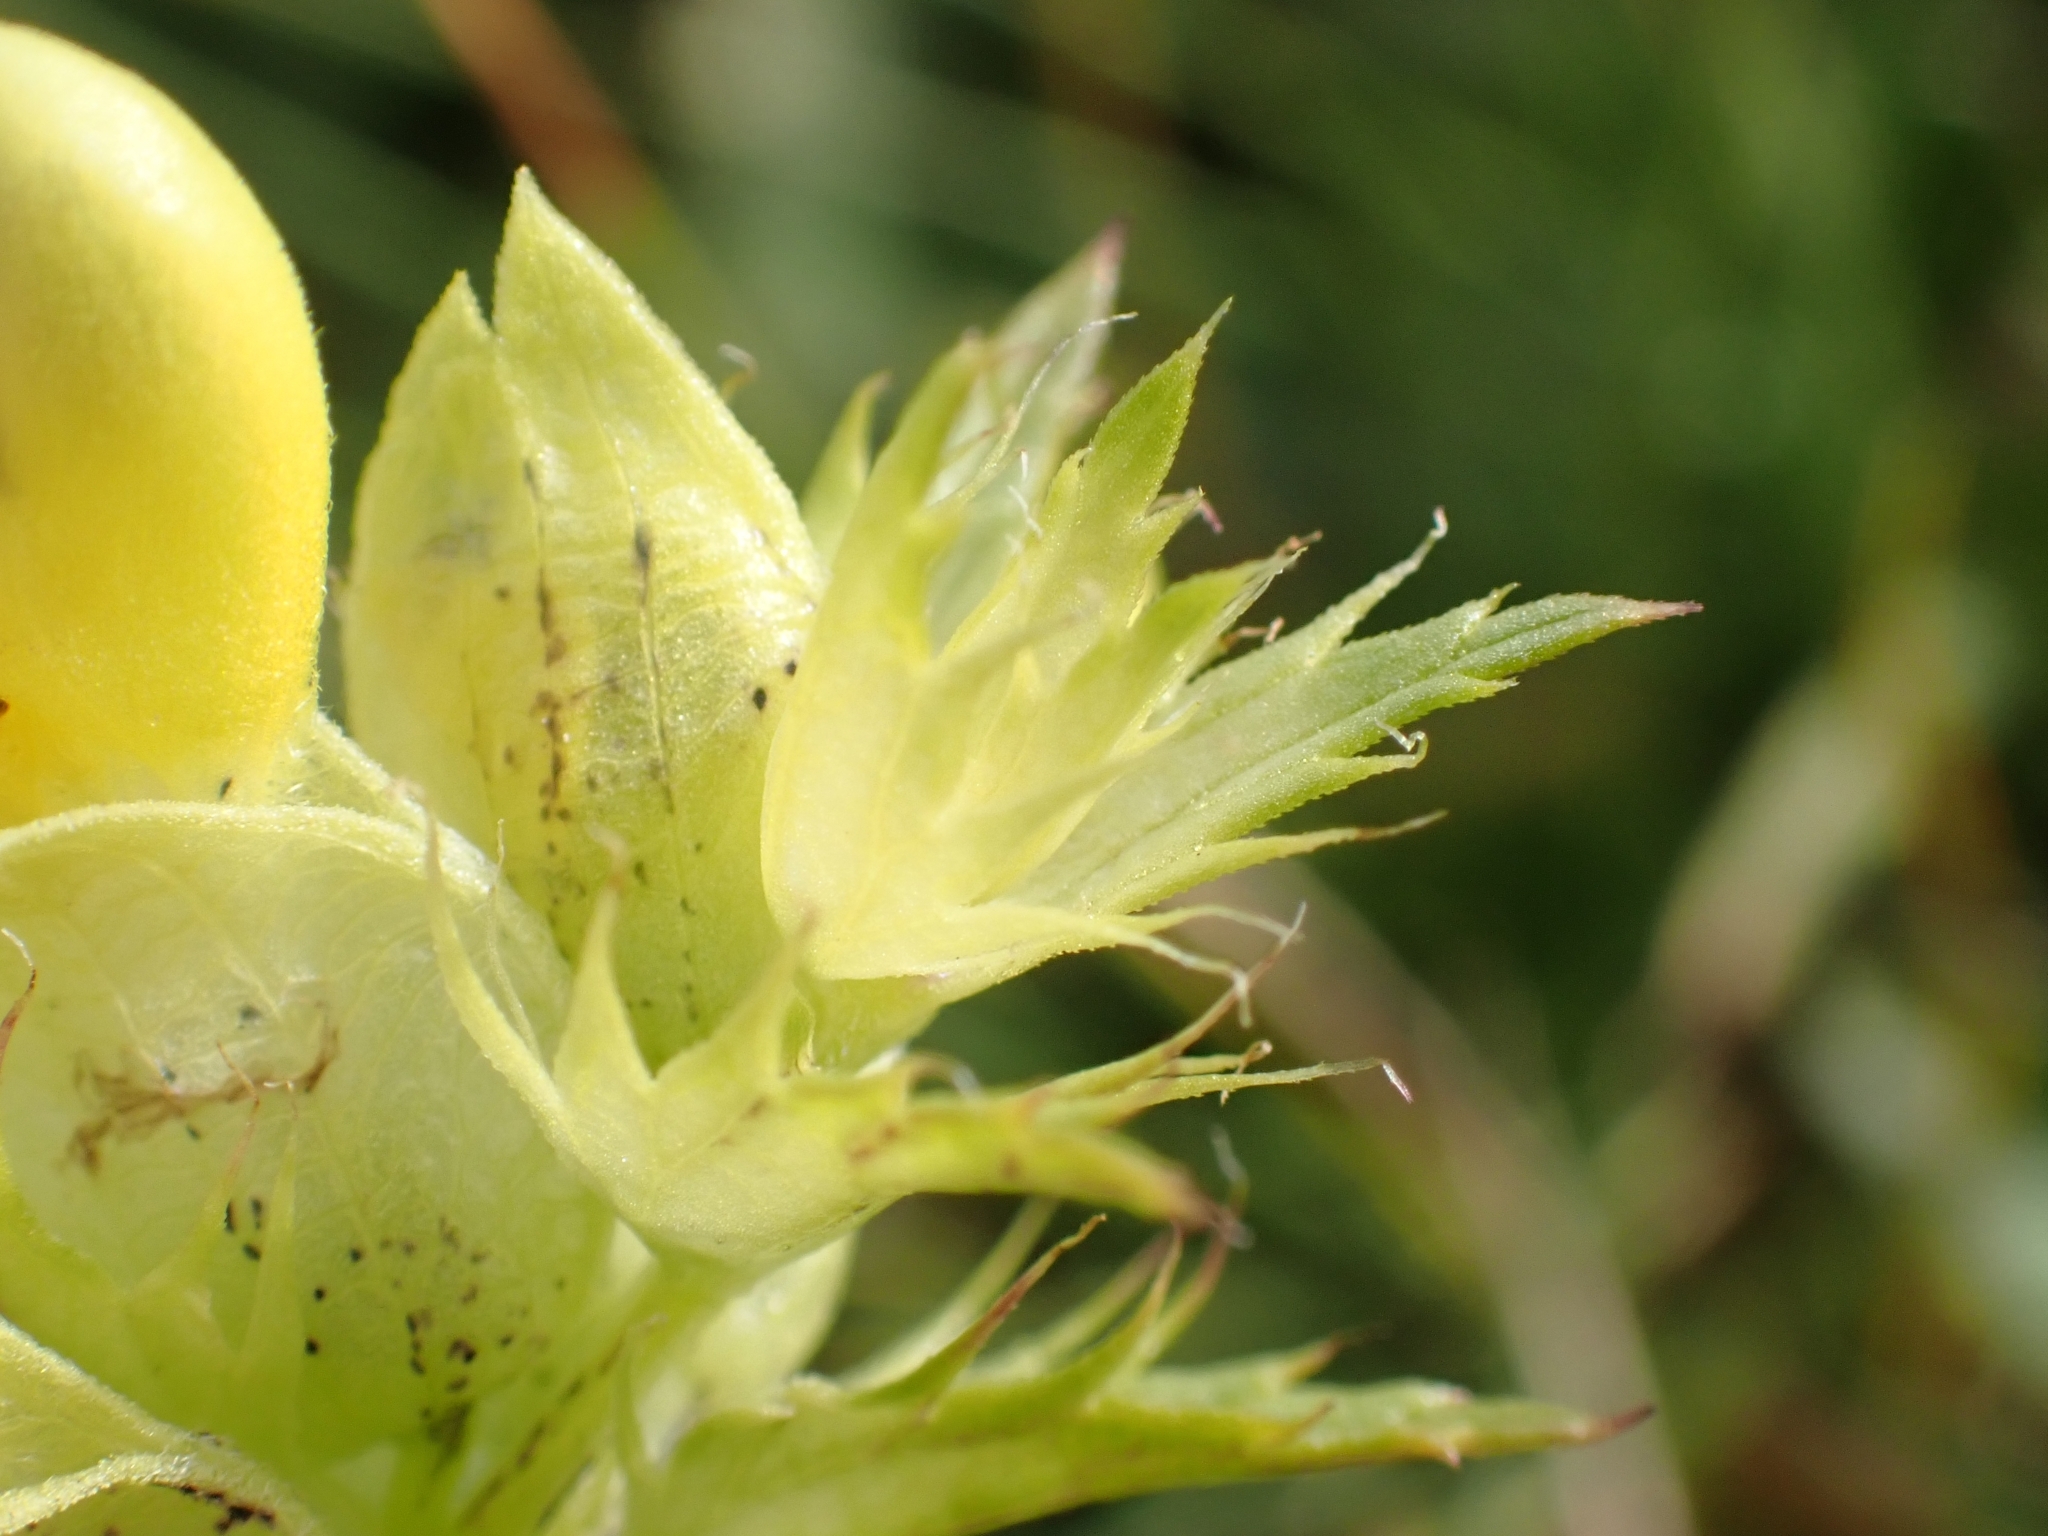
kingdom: Plantae
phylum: Tracheophyta
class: Magnoliopsida
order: Lamiales
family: Orobanchaceae
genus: Rhinanthus
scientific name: Rhinanthus glacialis
